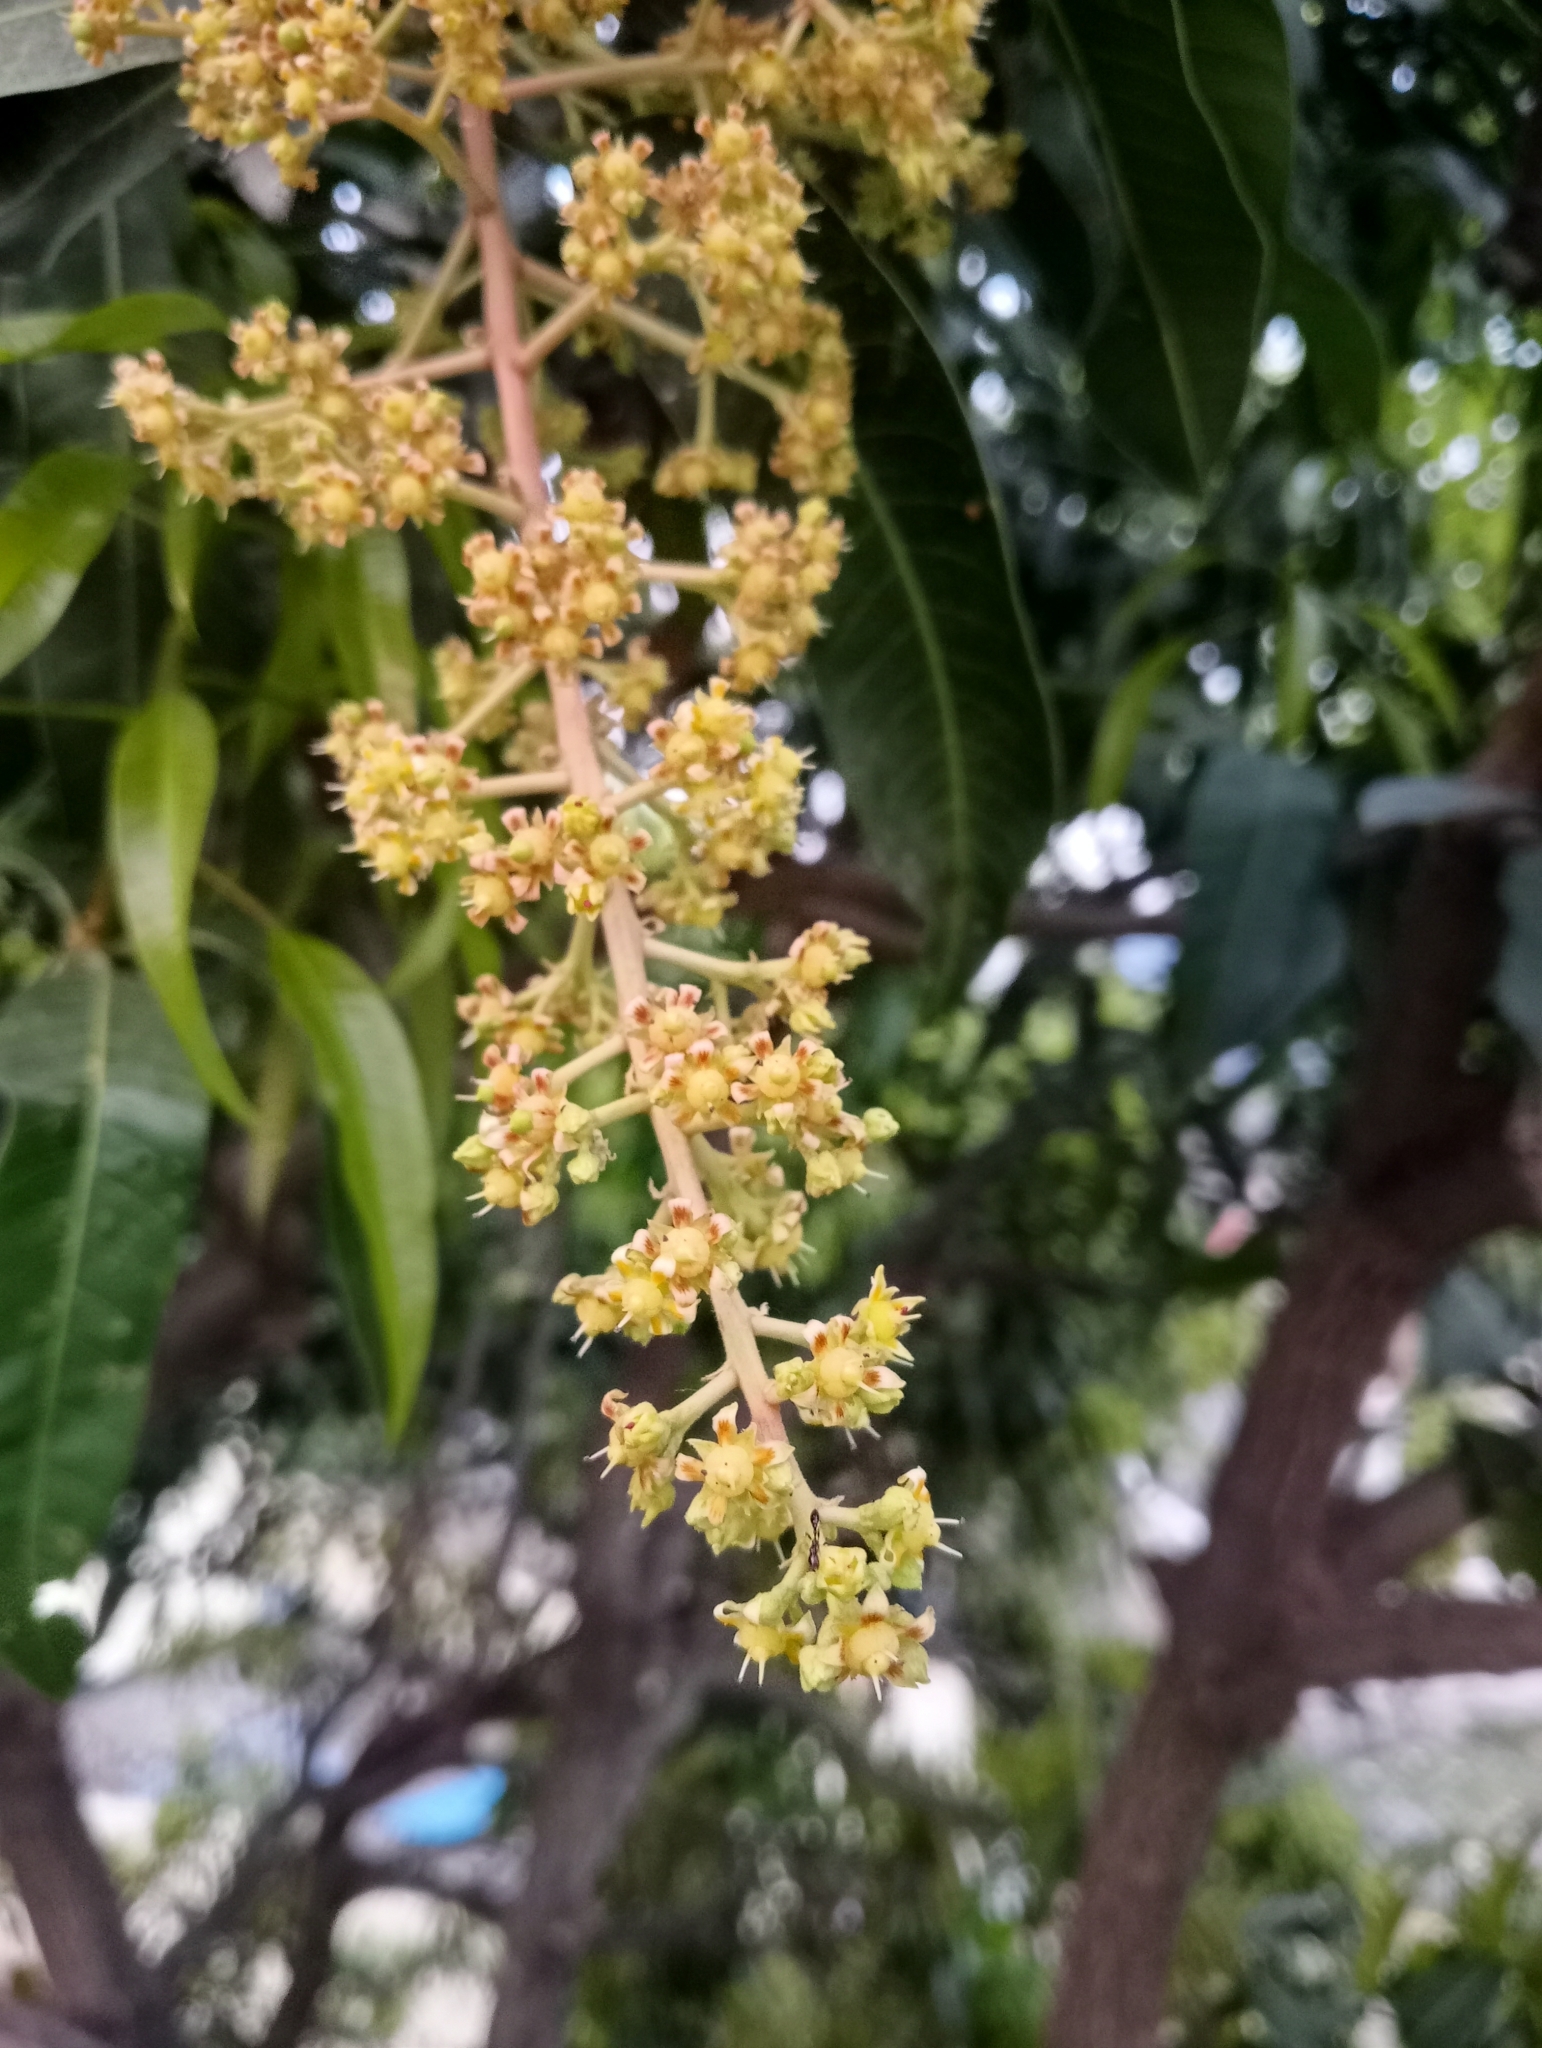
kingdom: Plantae
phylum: Tracheophyta
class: Magnoliopsida
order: Sapindales
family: Anacardiaceae
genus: Mangifera
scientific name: Mangifera indica
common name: Mango
